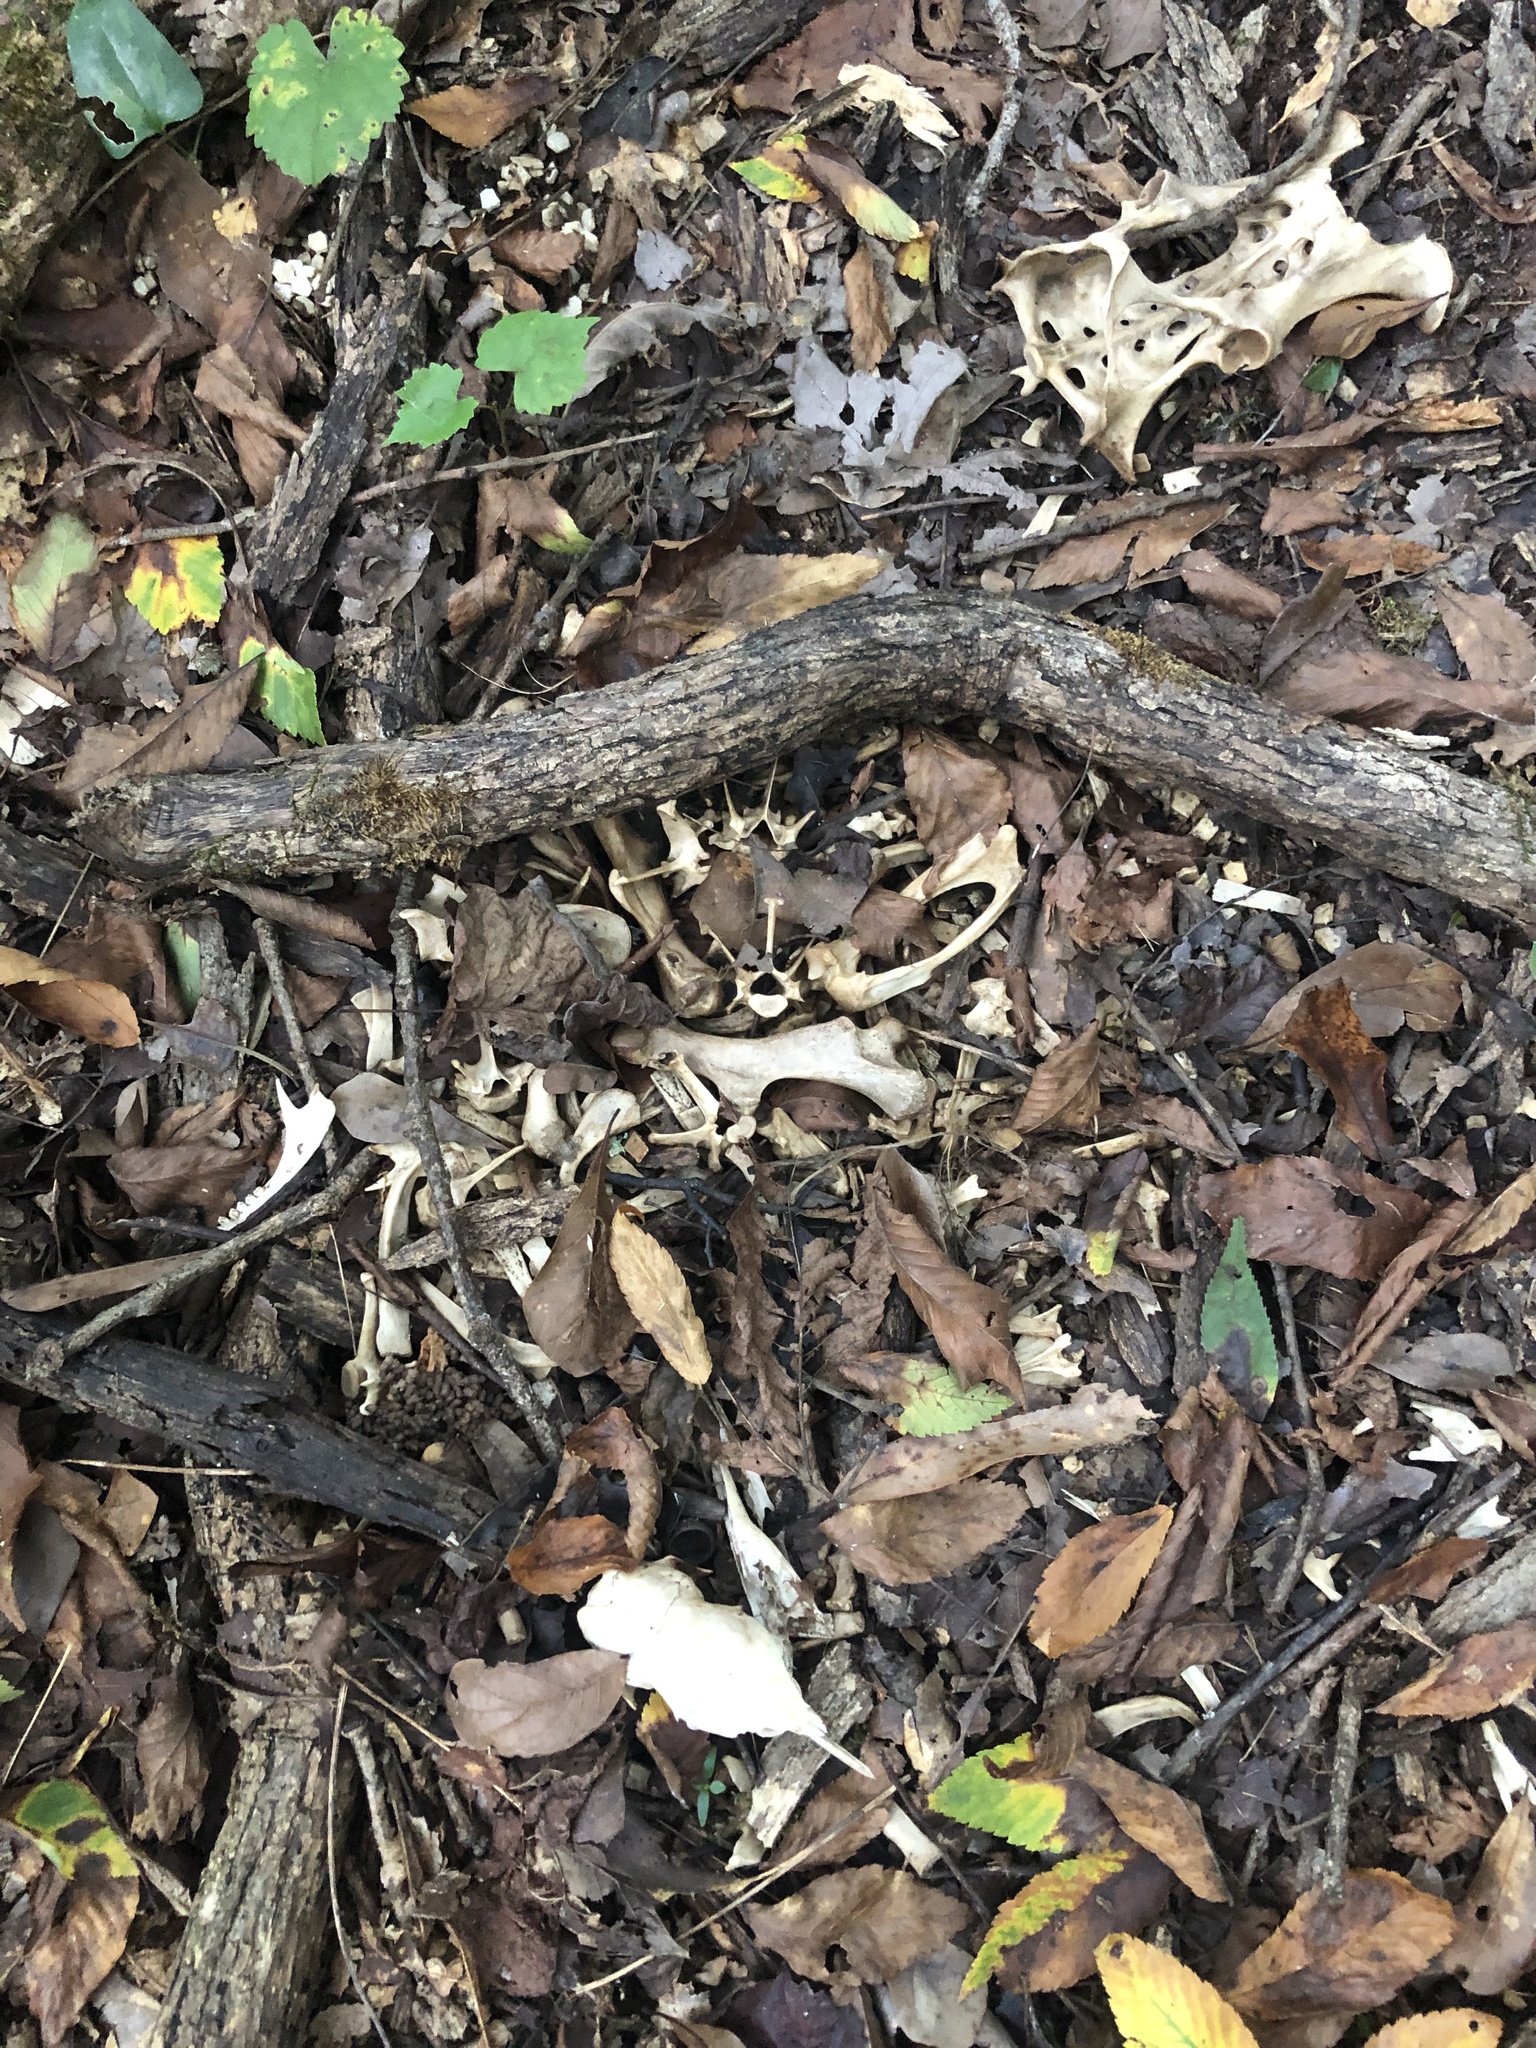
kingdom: Animalia
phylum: Chordata
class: Mammalia
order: Cingulata
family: Dasypodidae
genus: Dasypus
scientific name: Dasypus novemcinctus
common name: Nine-banded armadillo
